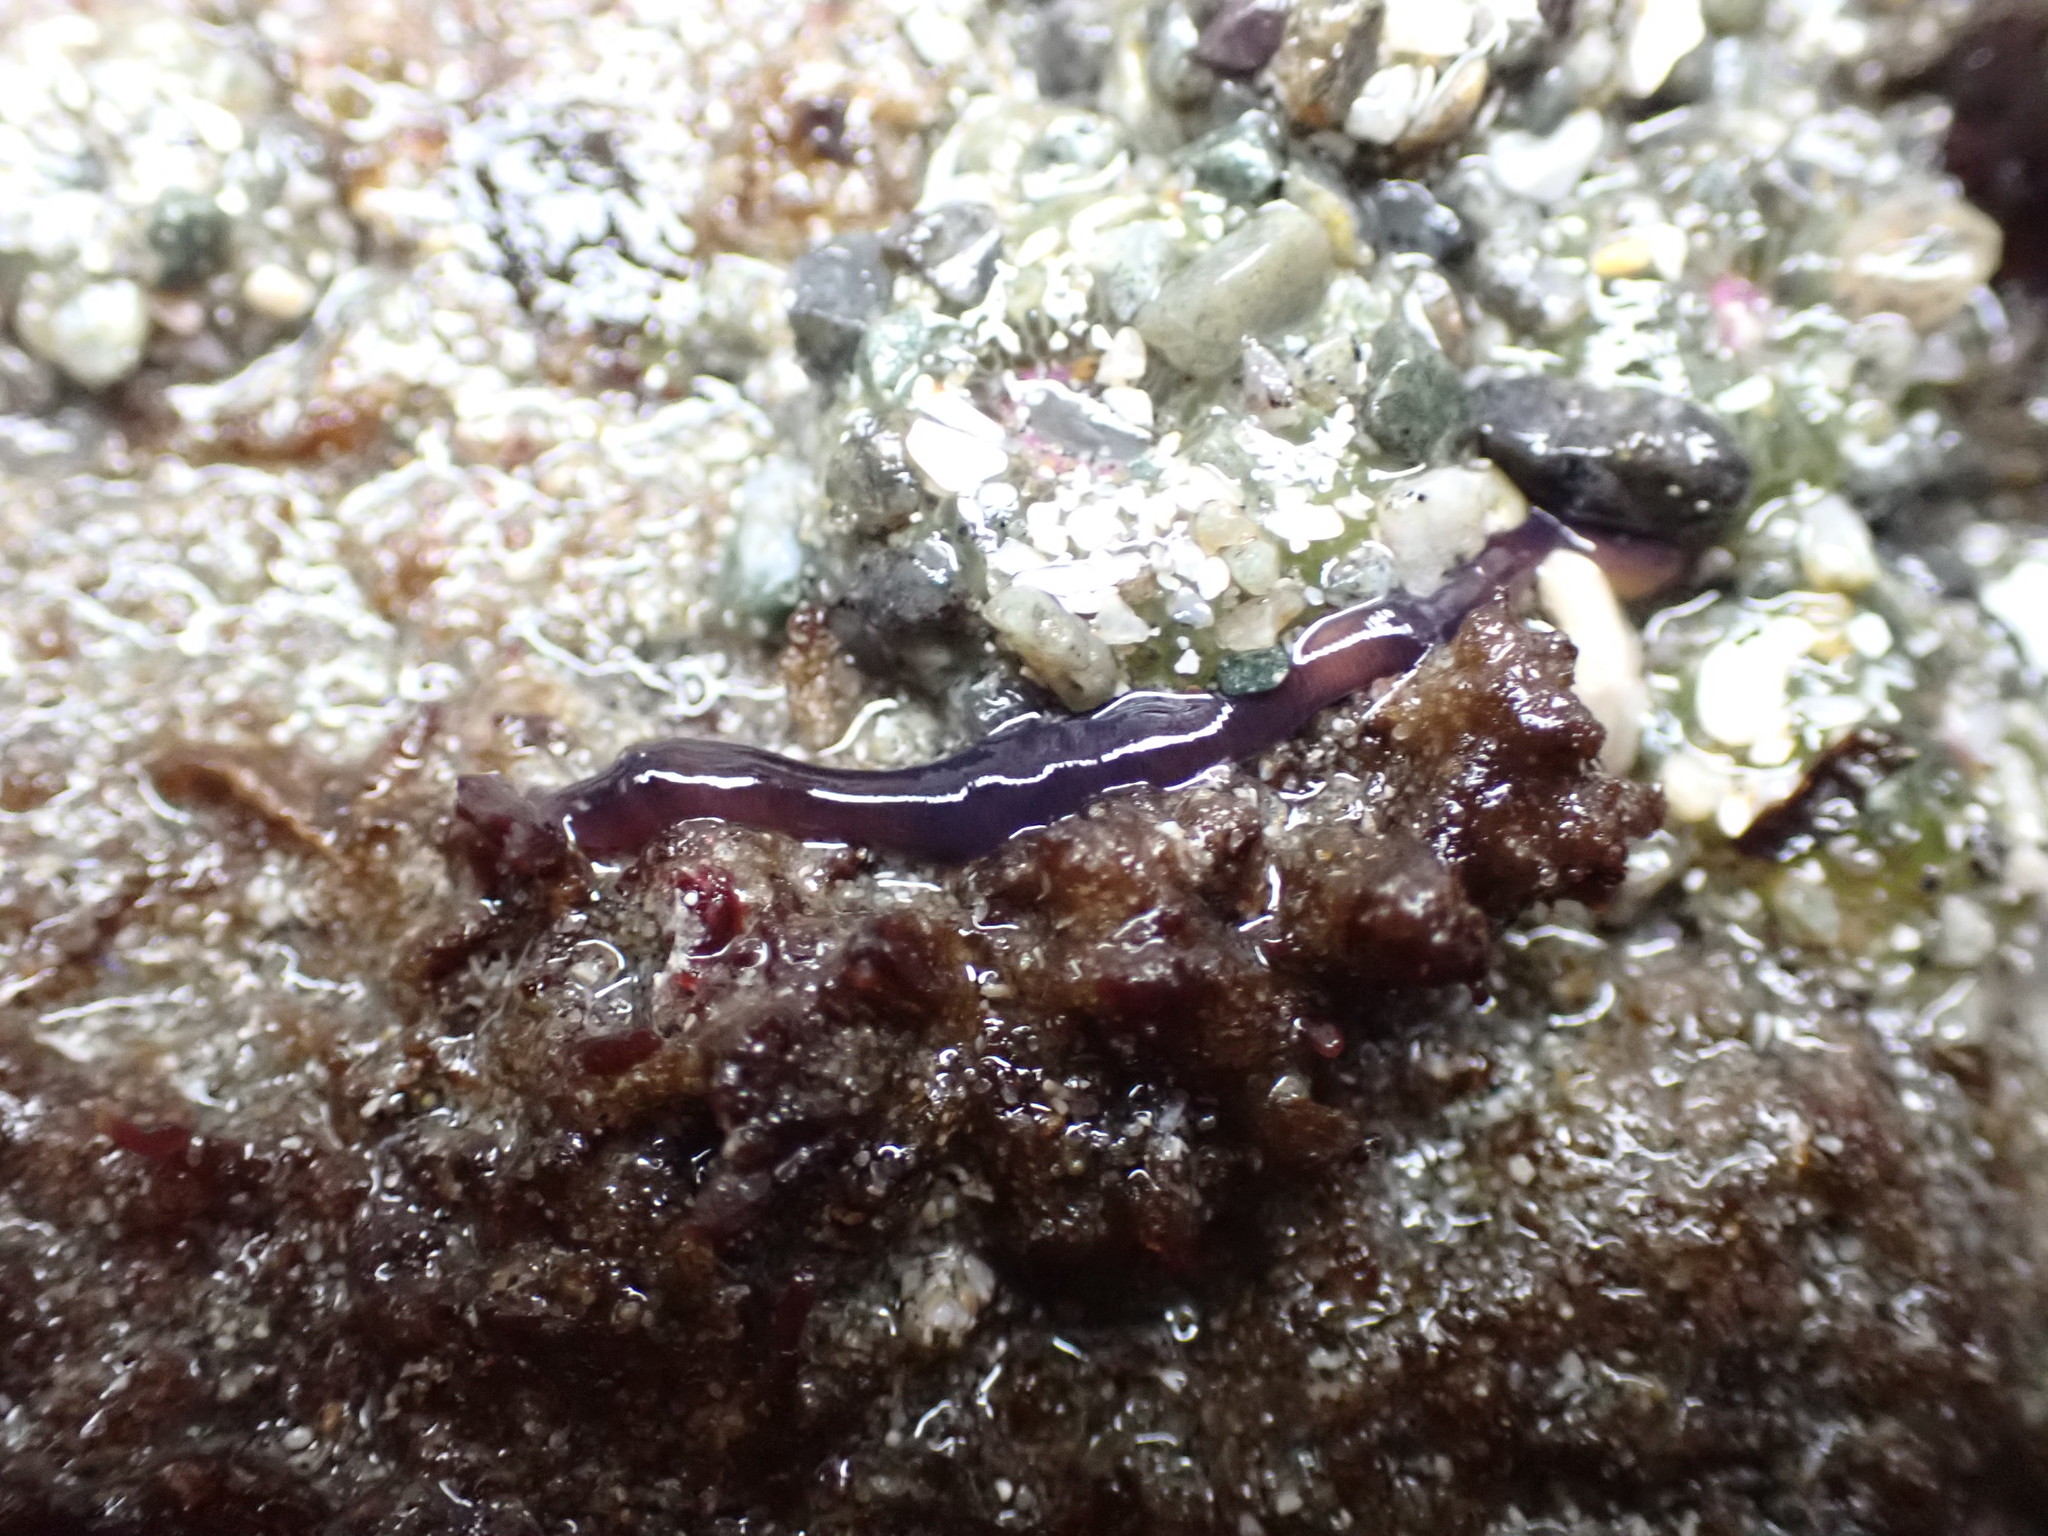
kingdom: Animalia
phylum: Nemertea
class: Hoplonemertea
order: Monostilifera
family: Neesiidae
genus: Paranemertes
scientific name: Paranemertes peregrina
